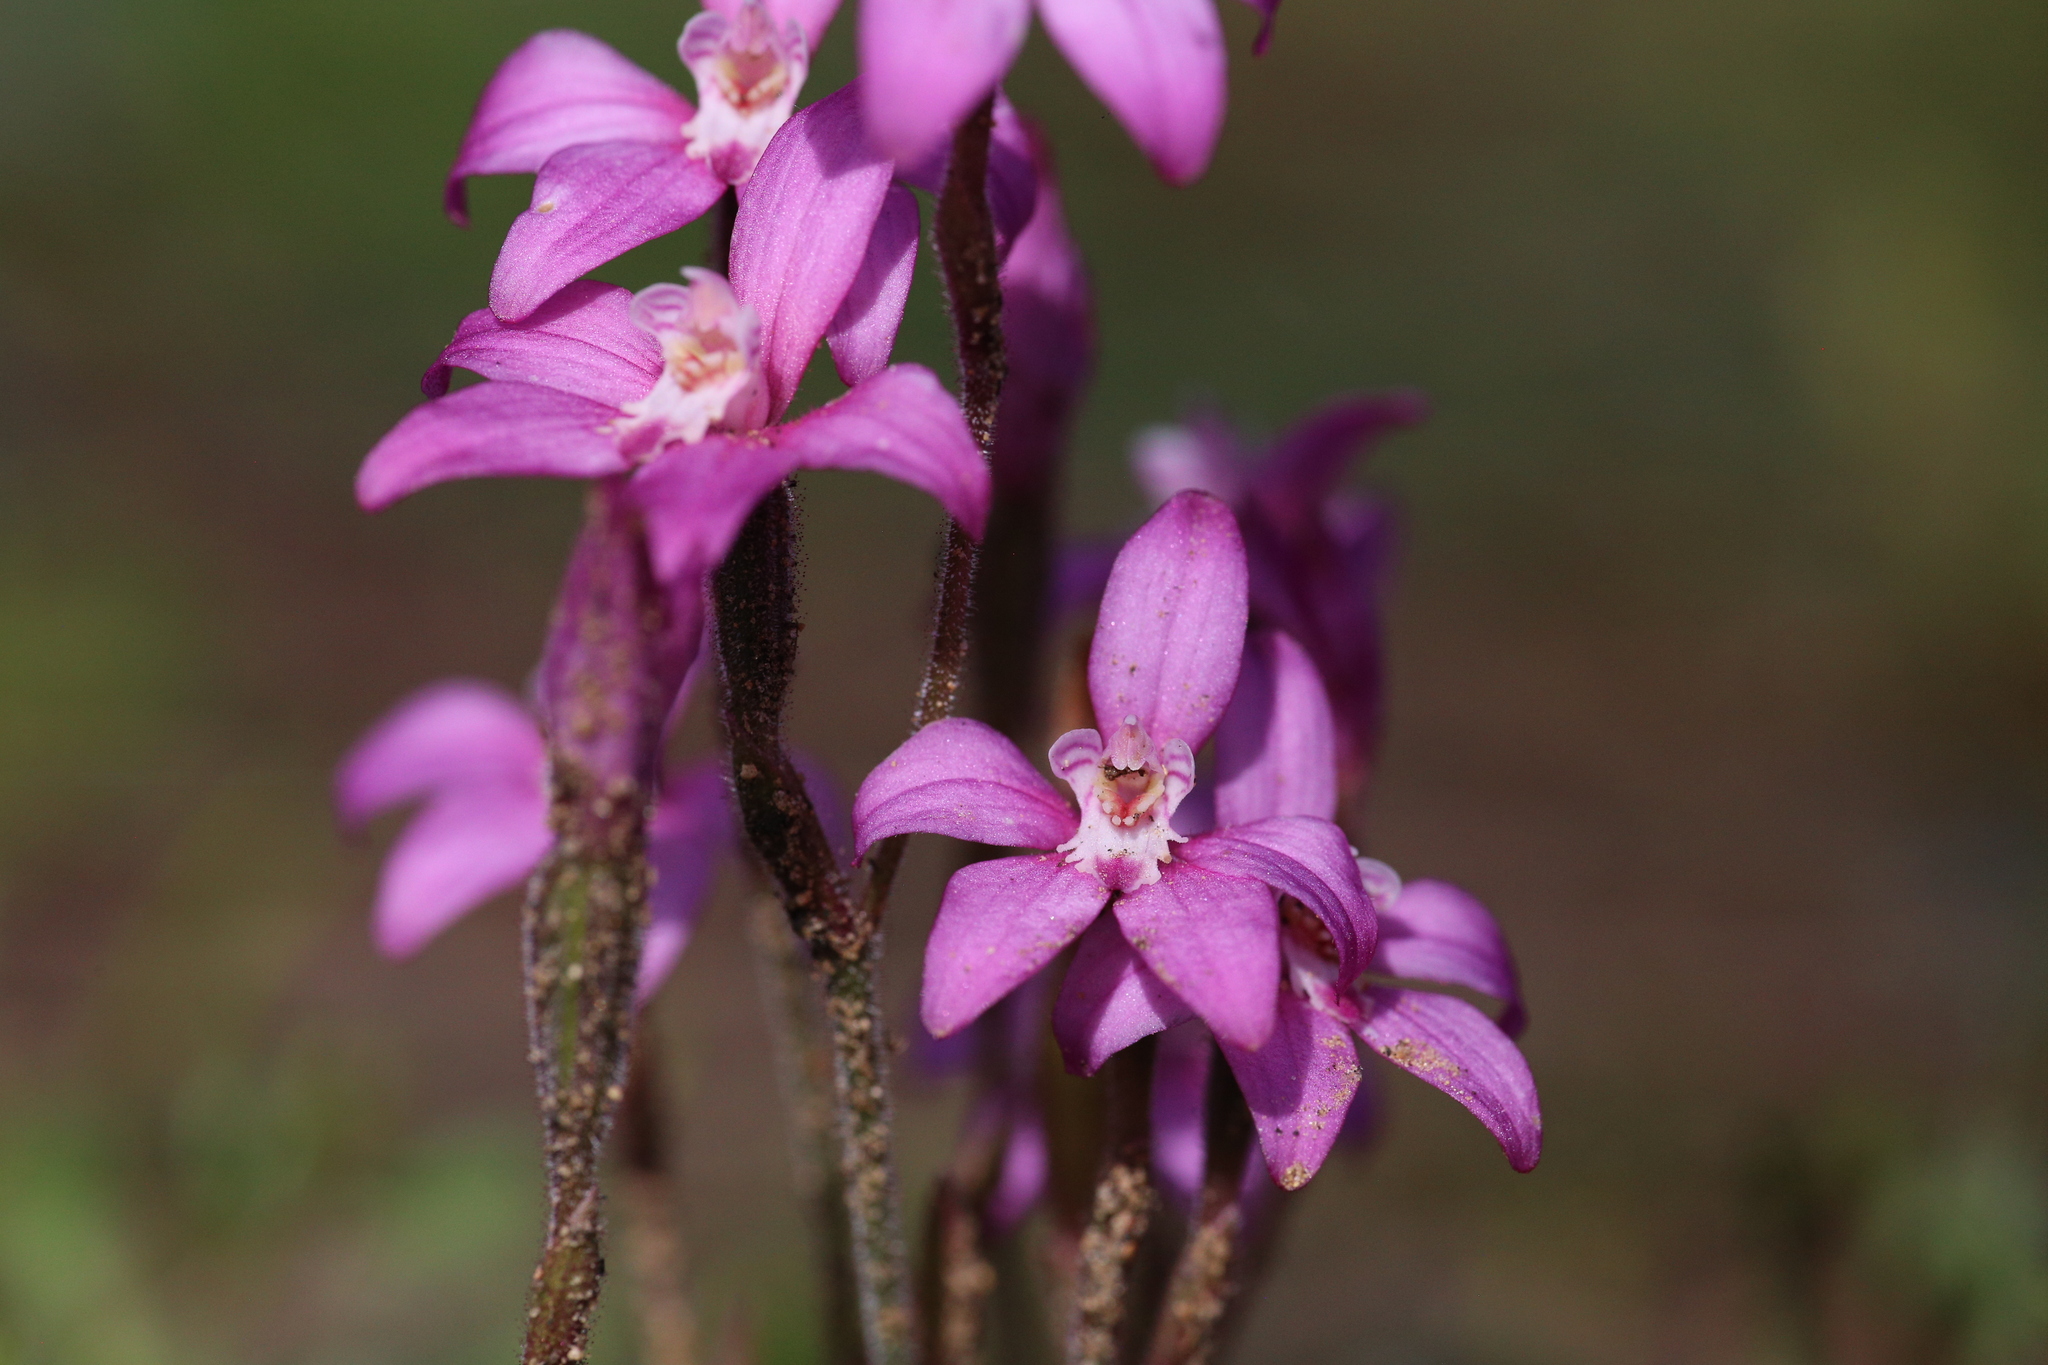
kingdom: Plantae
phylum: Tracheophyta
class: Liliopsida
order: Asparagales
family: Orchidaceae
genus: Caladenia
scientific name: Caladenia reptans
